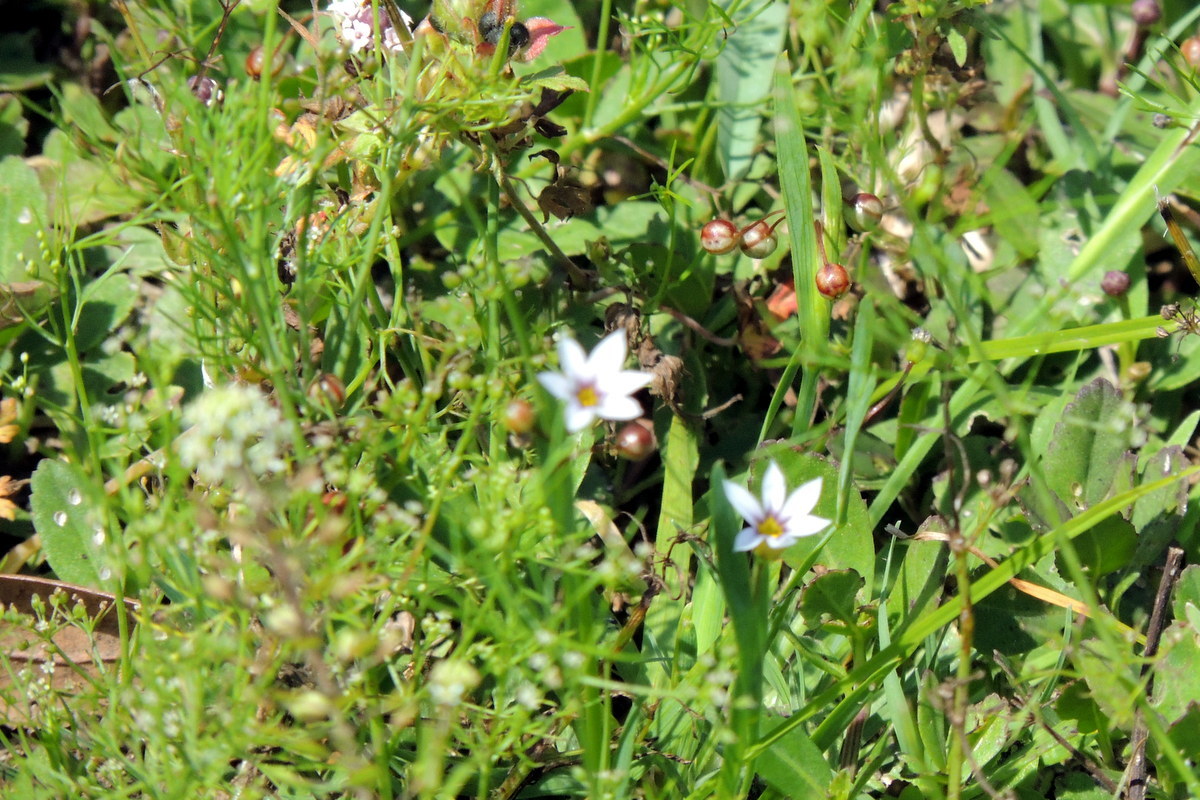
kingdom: Plantae
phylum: Tracheophyta
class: Liliopsida
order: Asparagales
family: Iridaceae
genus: Sisyrinchium
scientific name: Sisyrinchium micranthum
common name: Bermuda pigroot
